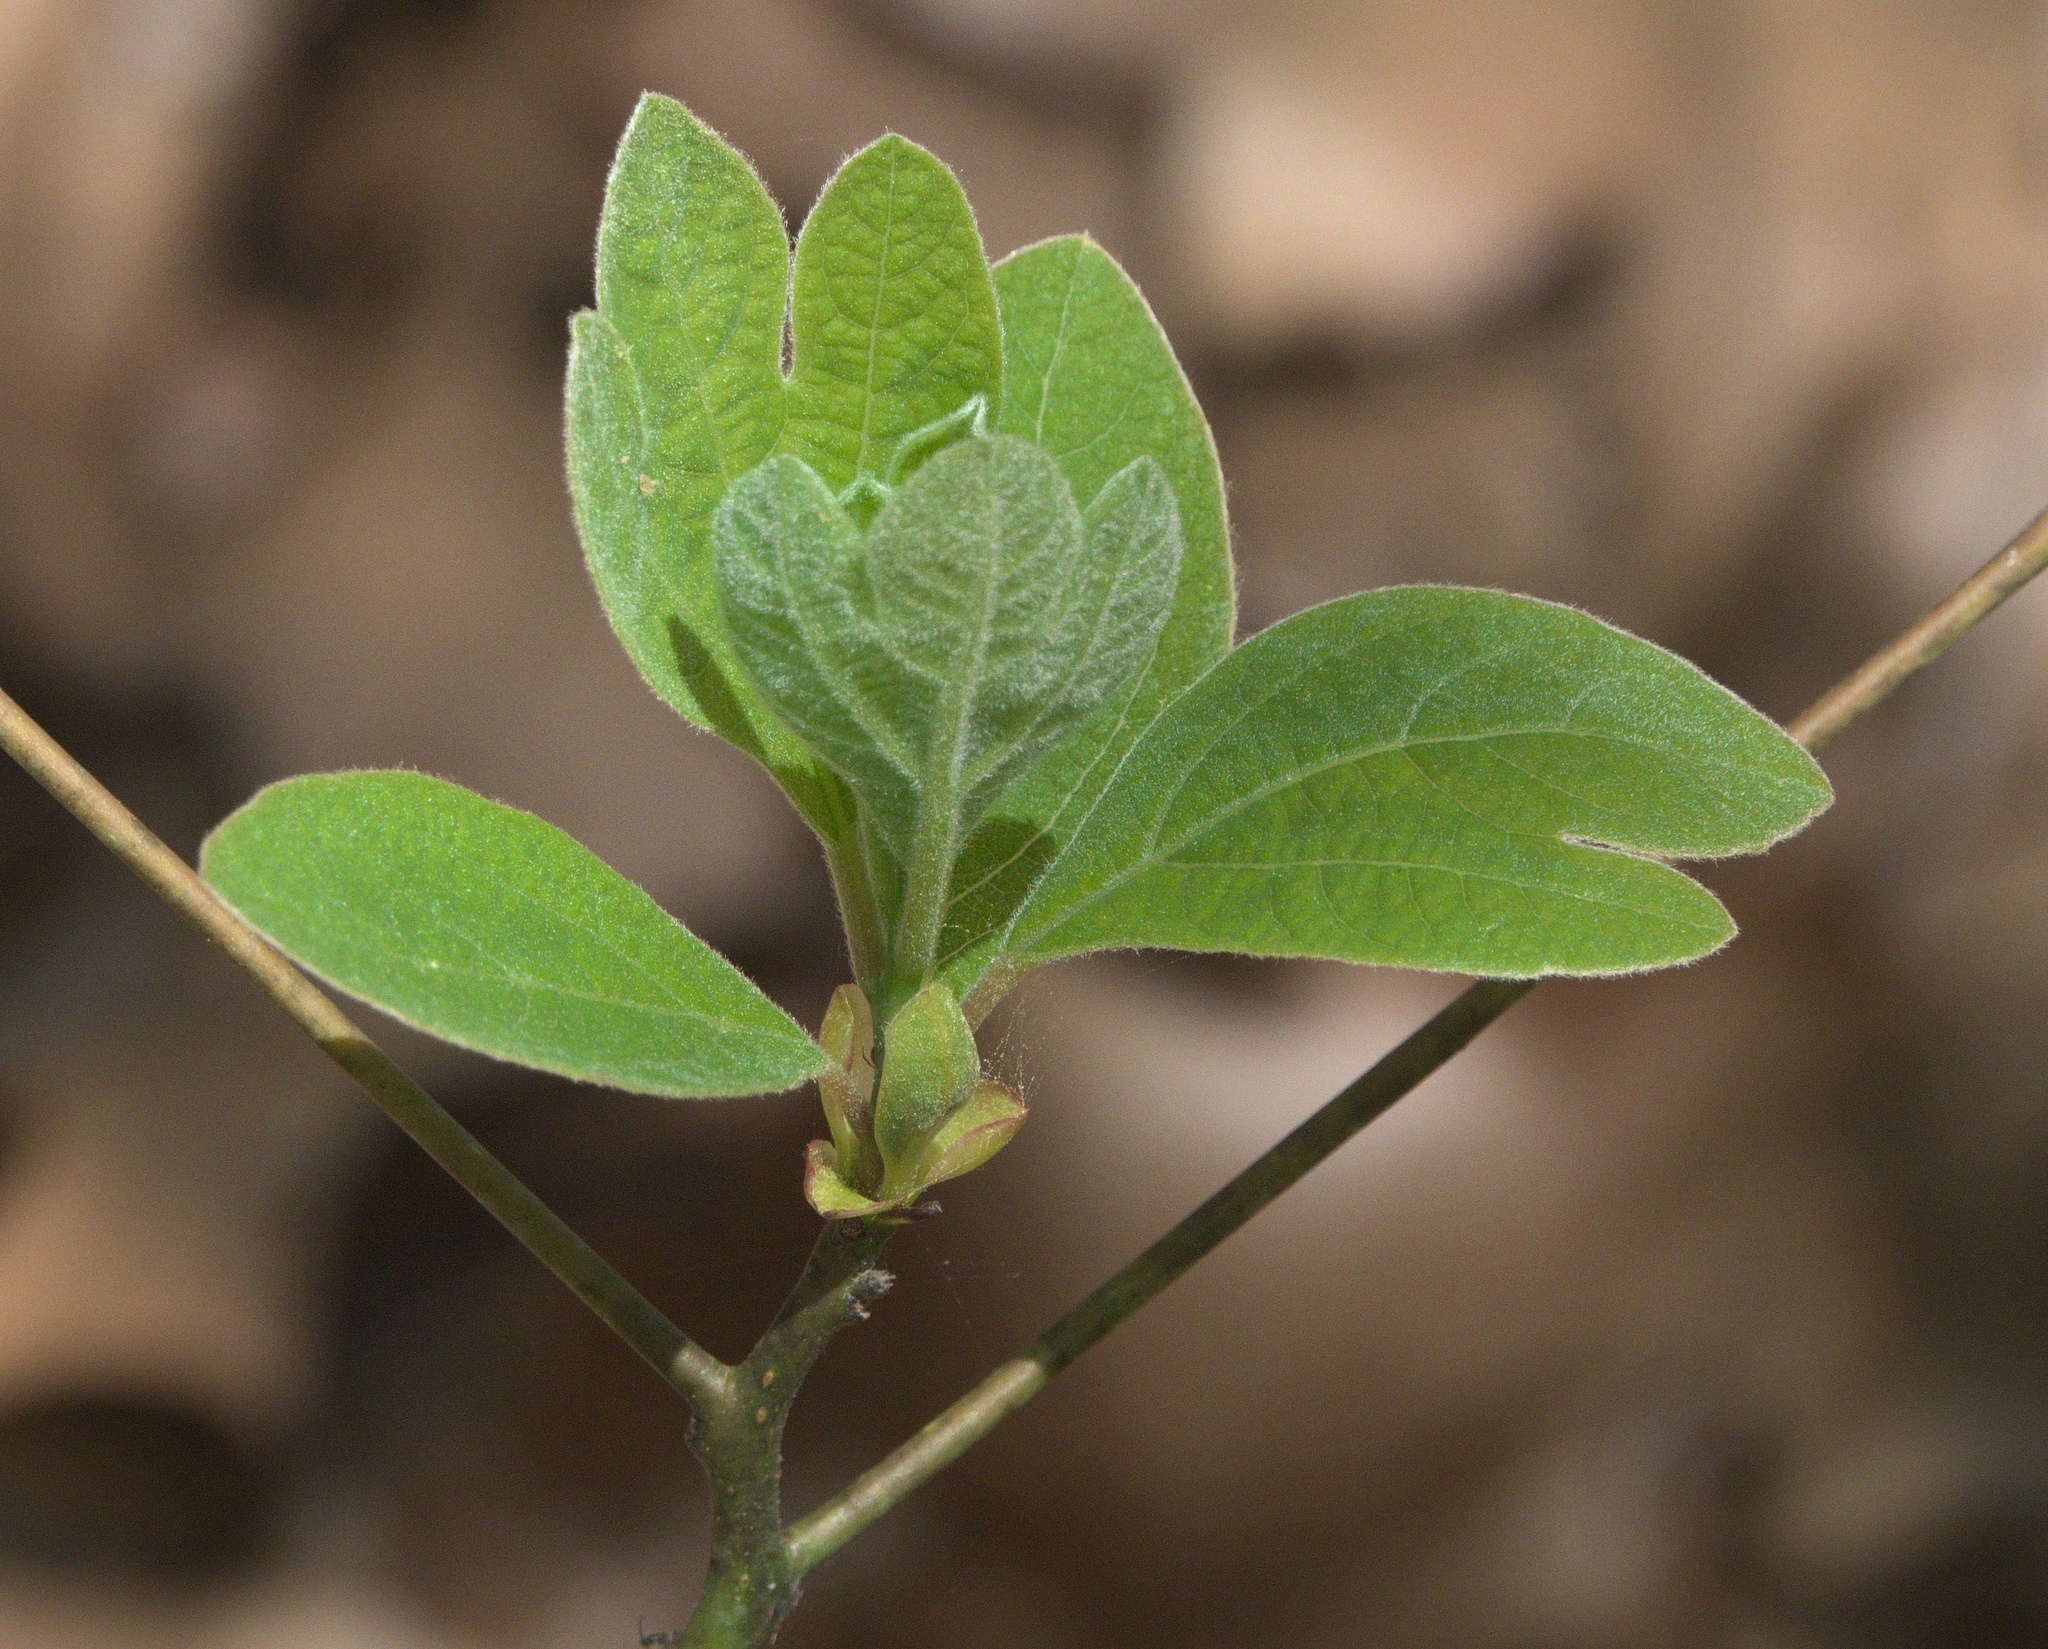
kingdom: Plantae
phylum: Tracheophyta
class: Magnoliopsida
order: Laurales
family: Lauraceae
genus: Sassafras
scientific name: Sassafras albidum
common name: Sassafras
